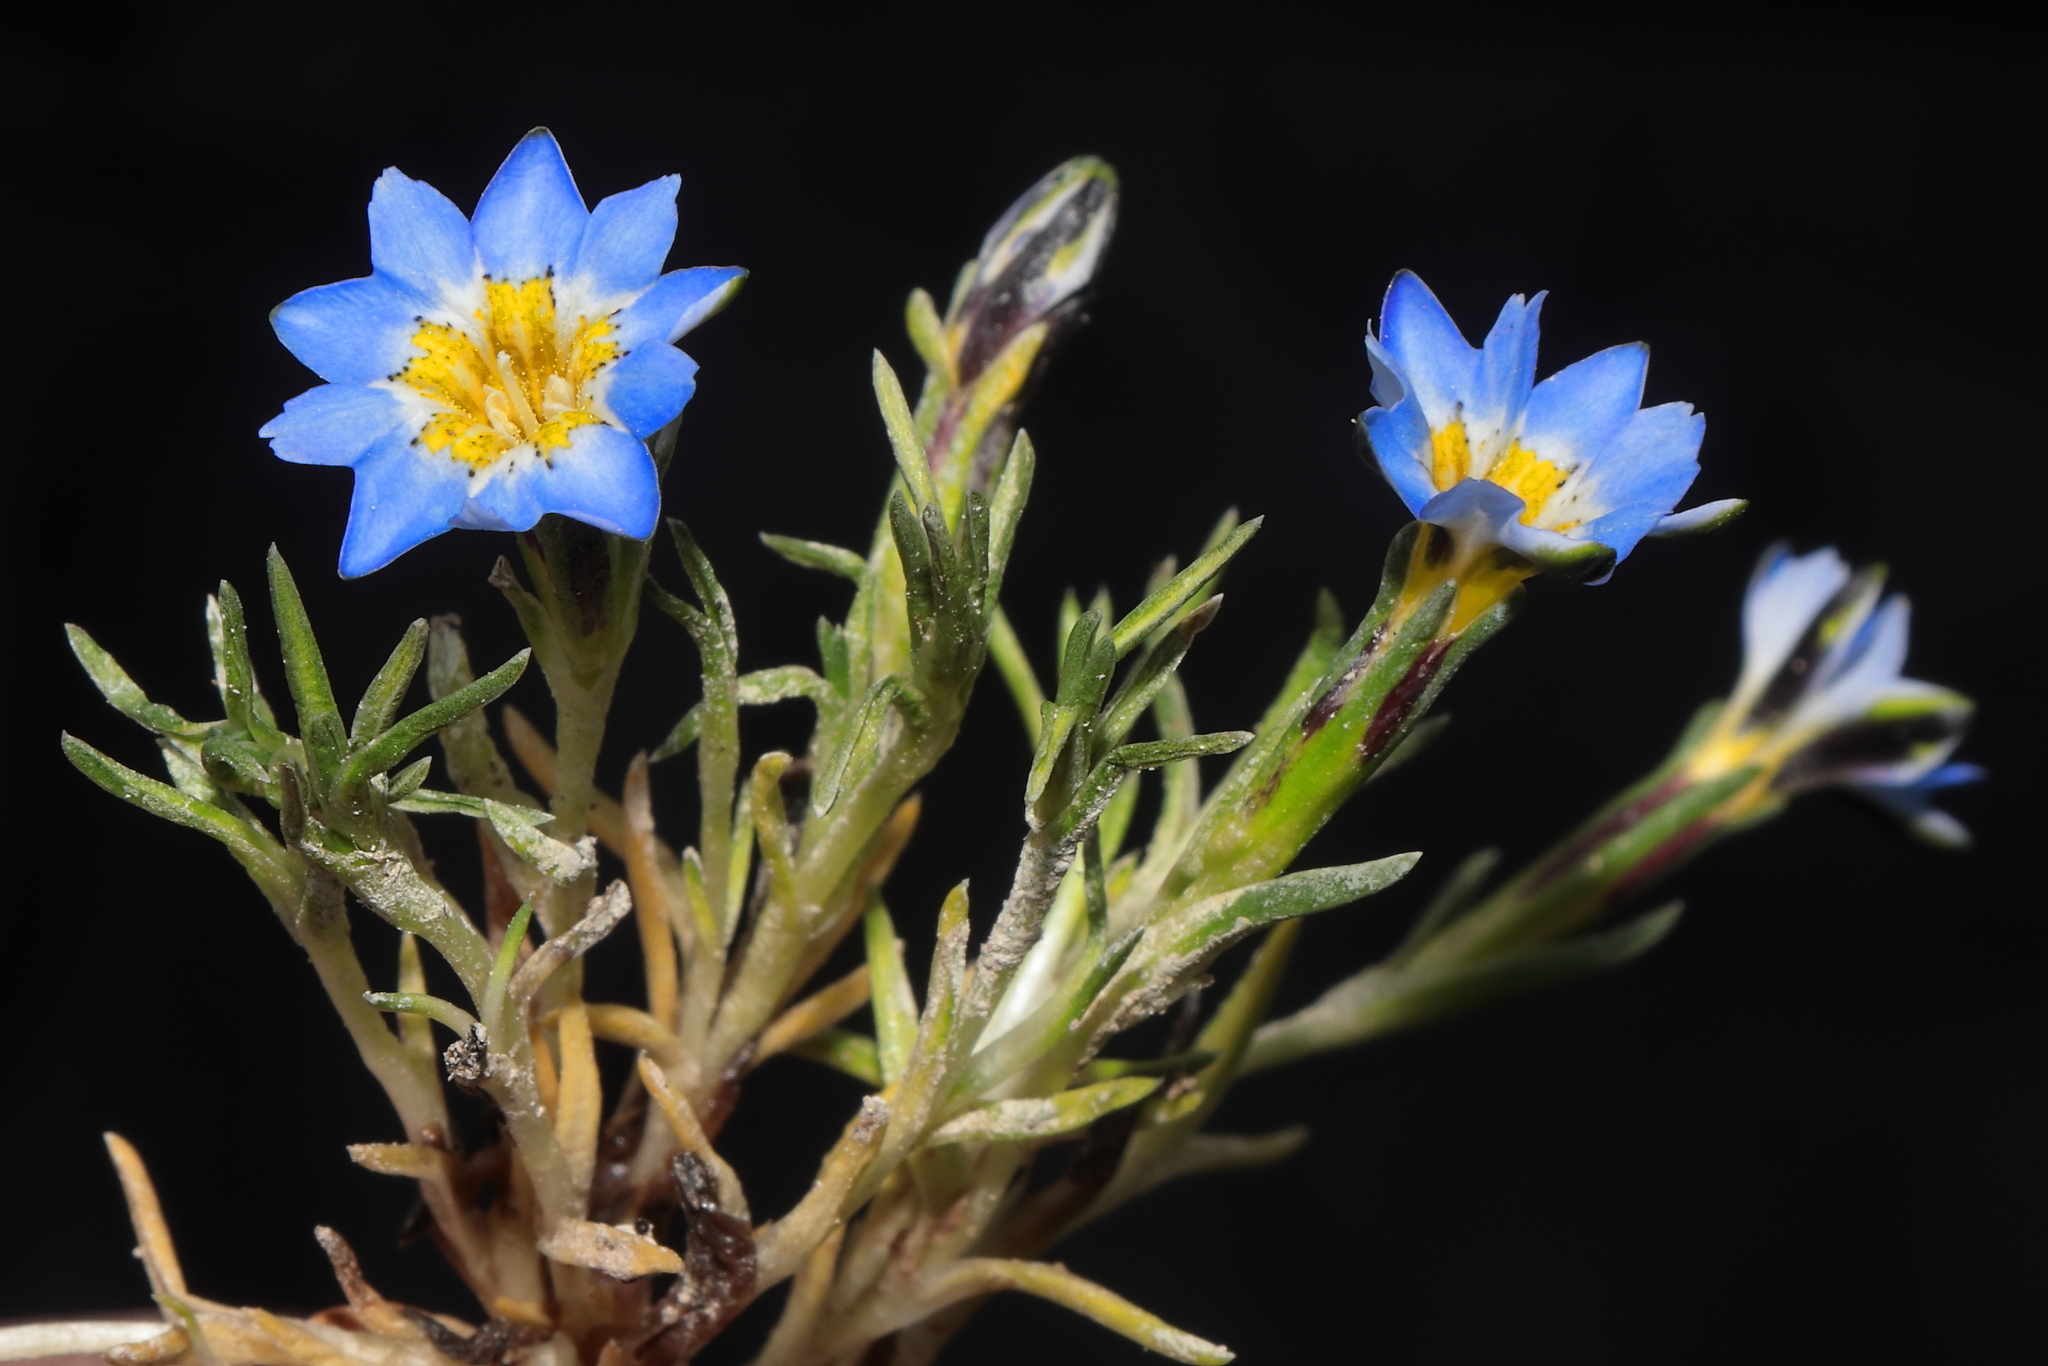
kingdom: Plantae
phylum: Tracheophyta
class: Magnoliopsida
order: Gentianales
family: Gentianaceae
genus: Gentiana
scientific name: Gentiana sedifolia
